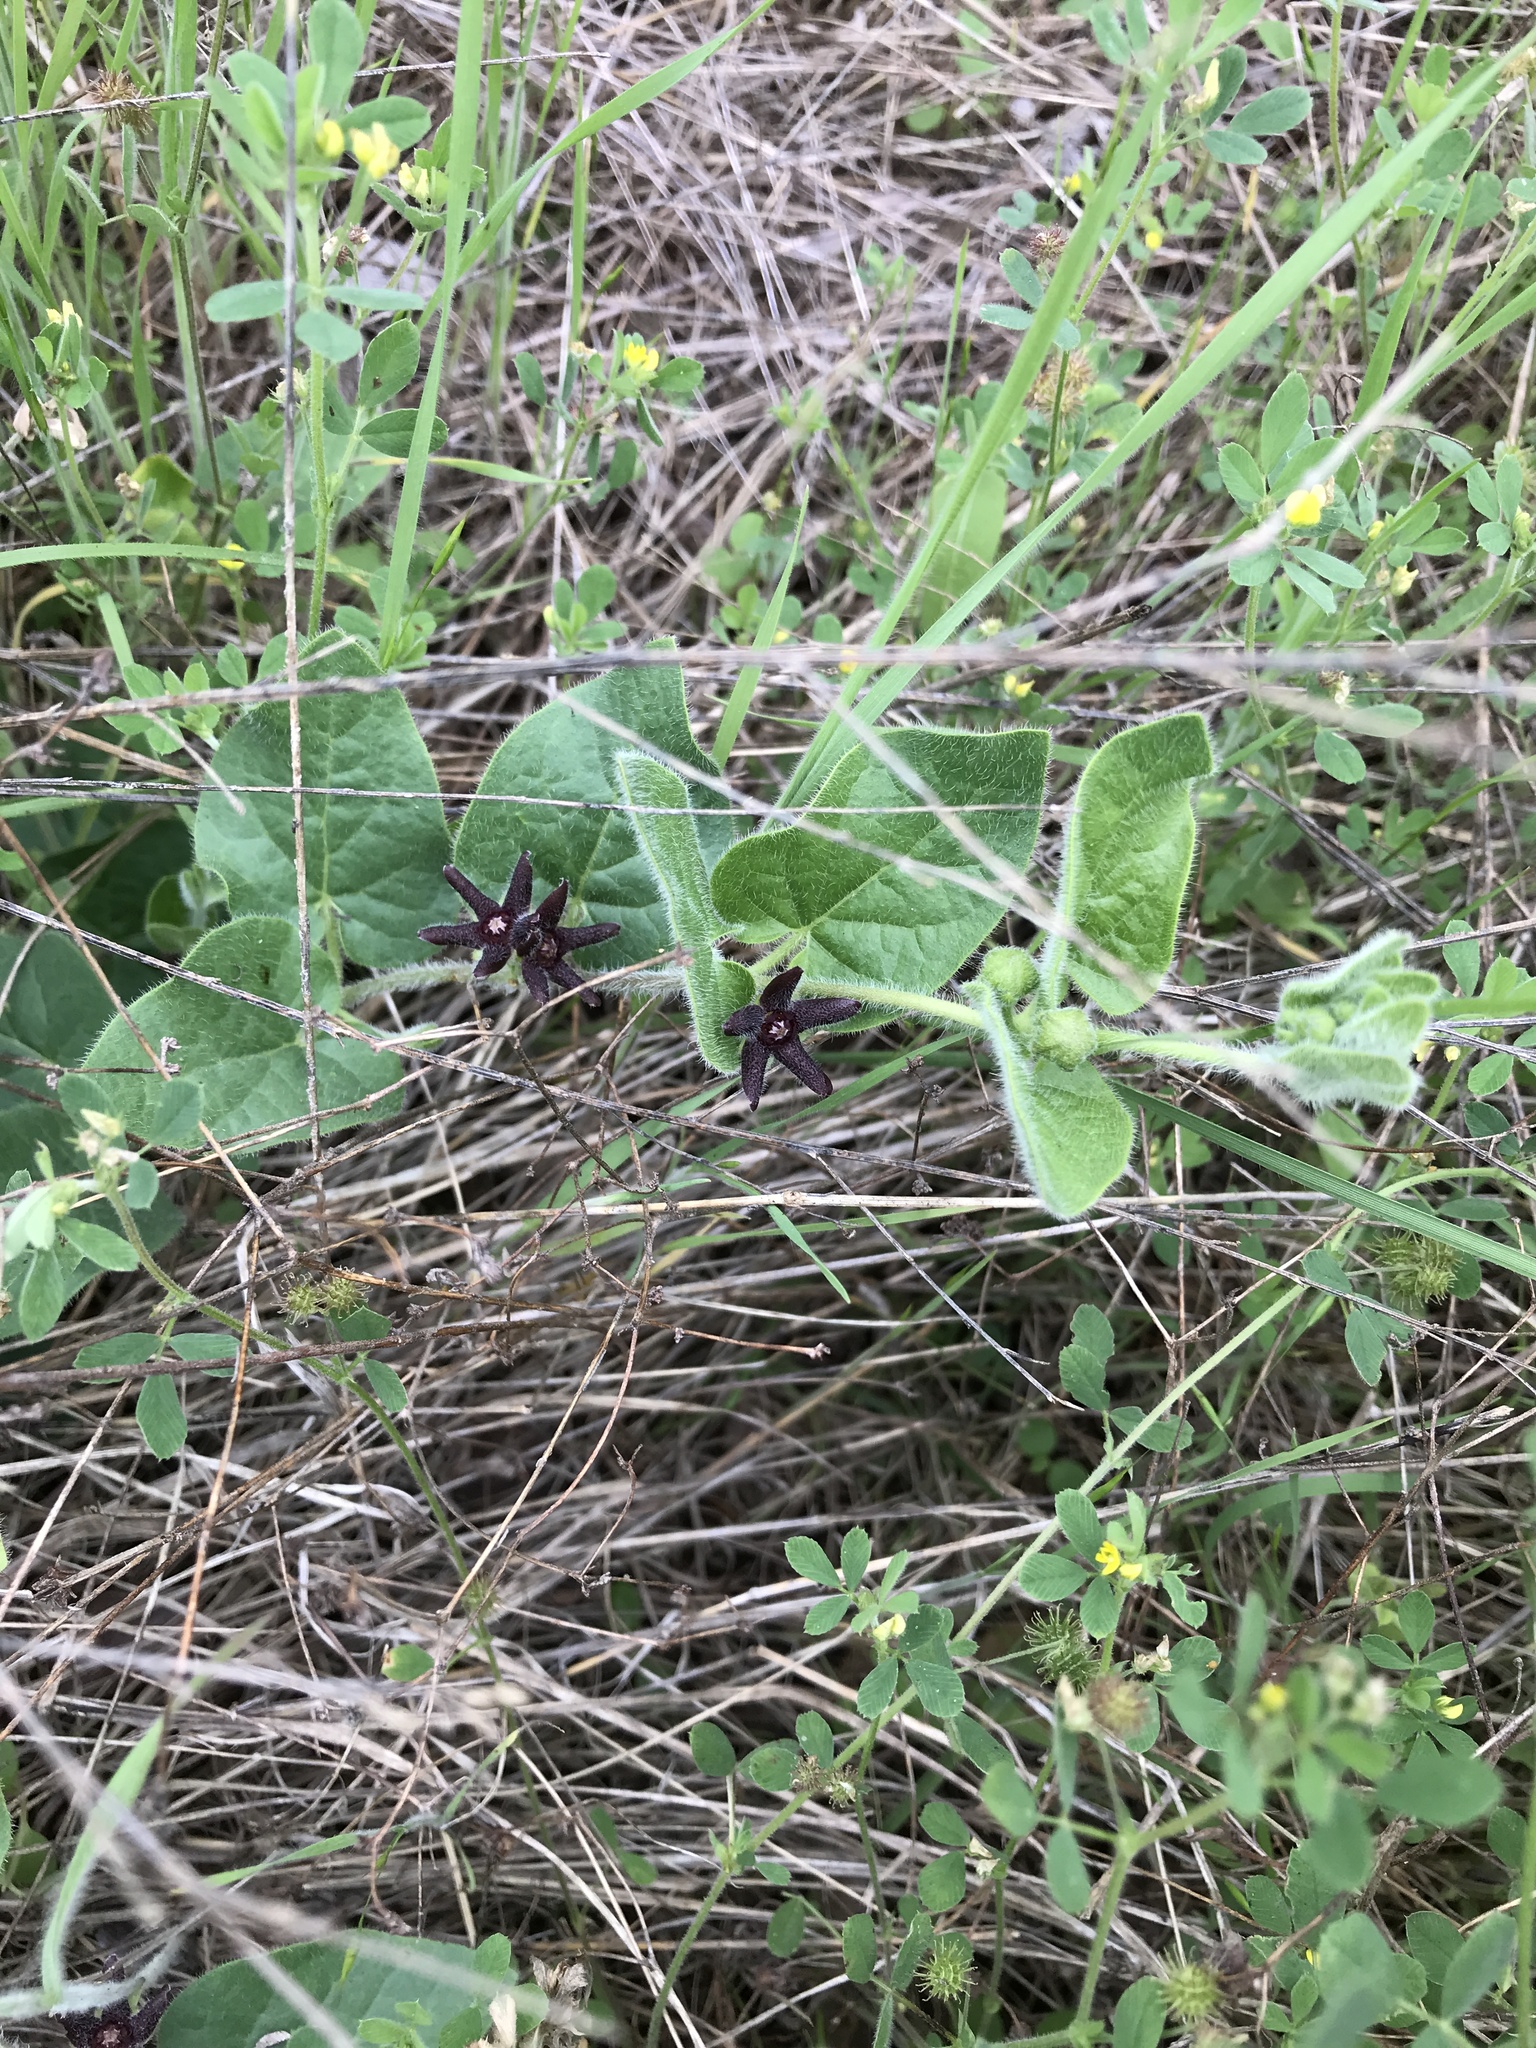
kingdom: Plantae
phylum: Tracheophyta
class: Magnoliopsida
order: Gentianales
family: Apocynaceae
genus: Chthamalia
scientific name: Chthamalia biflora
